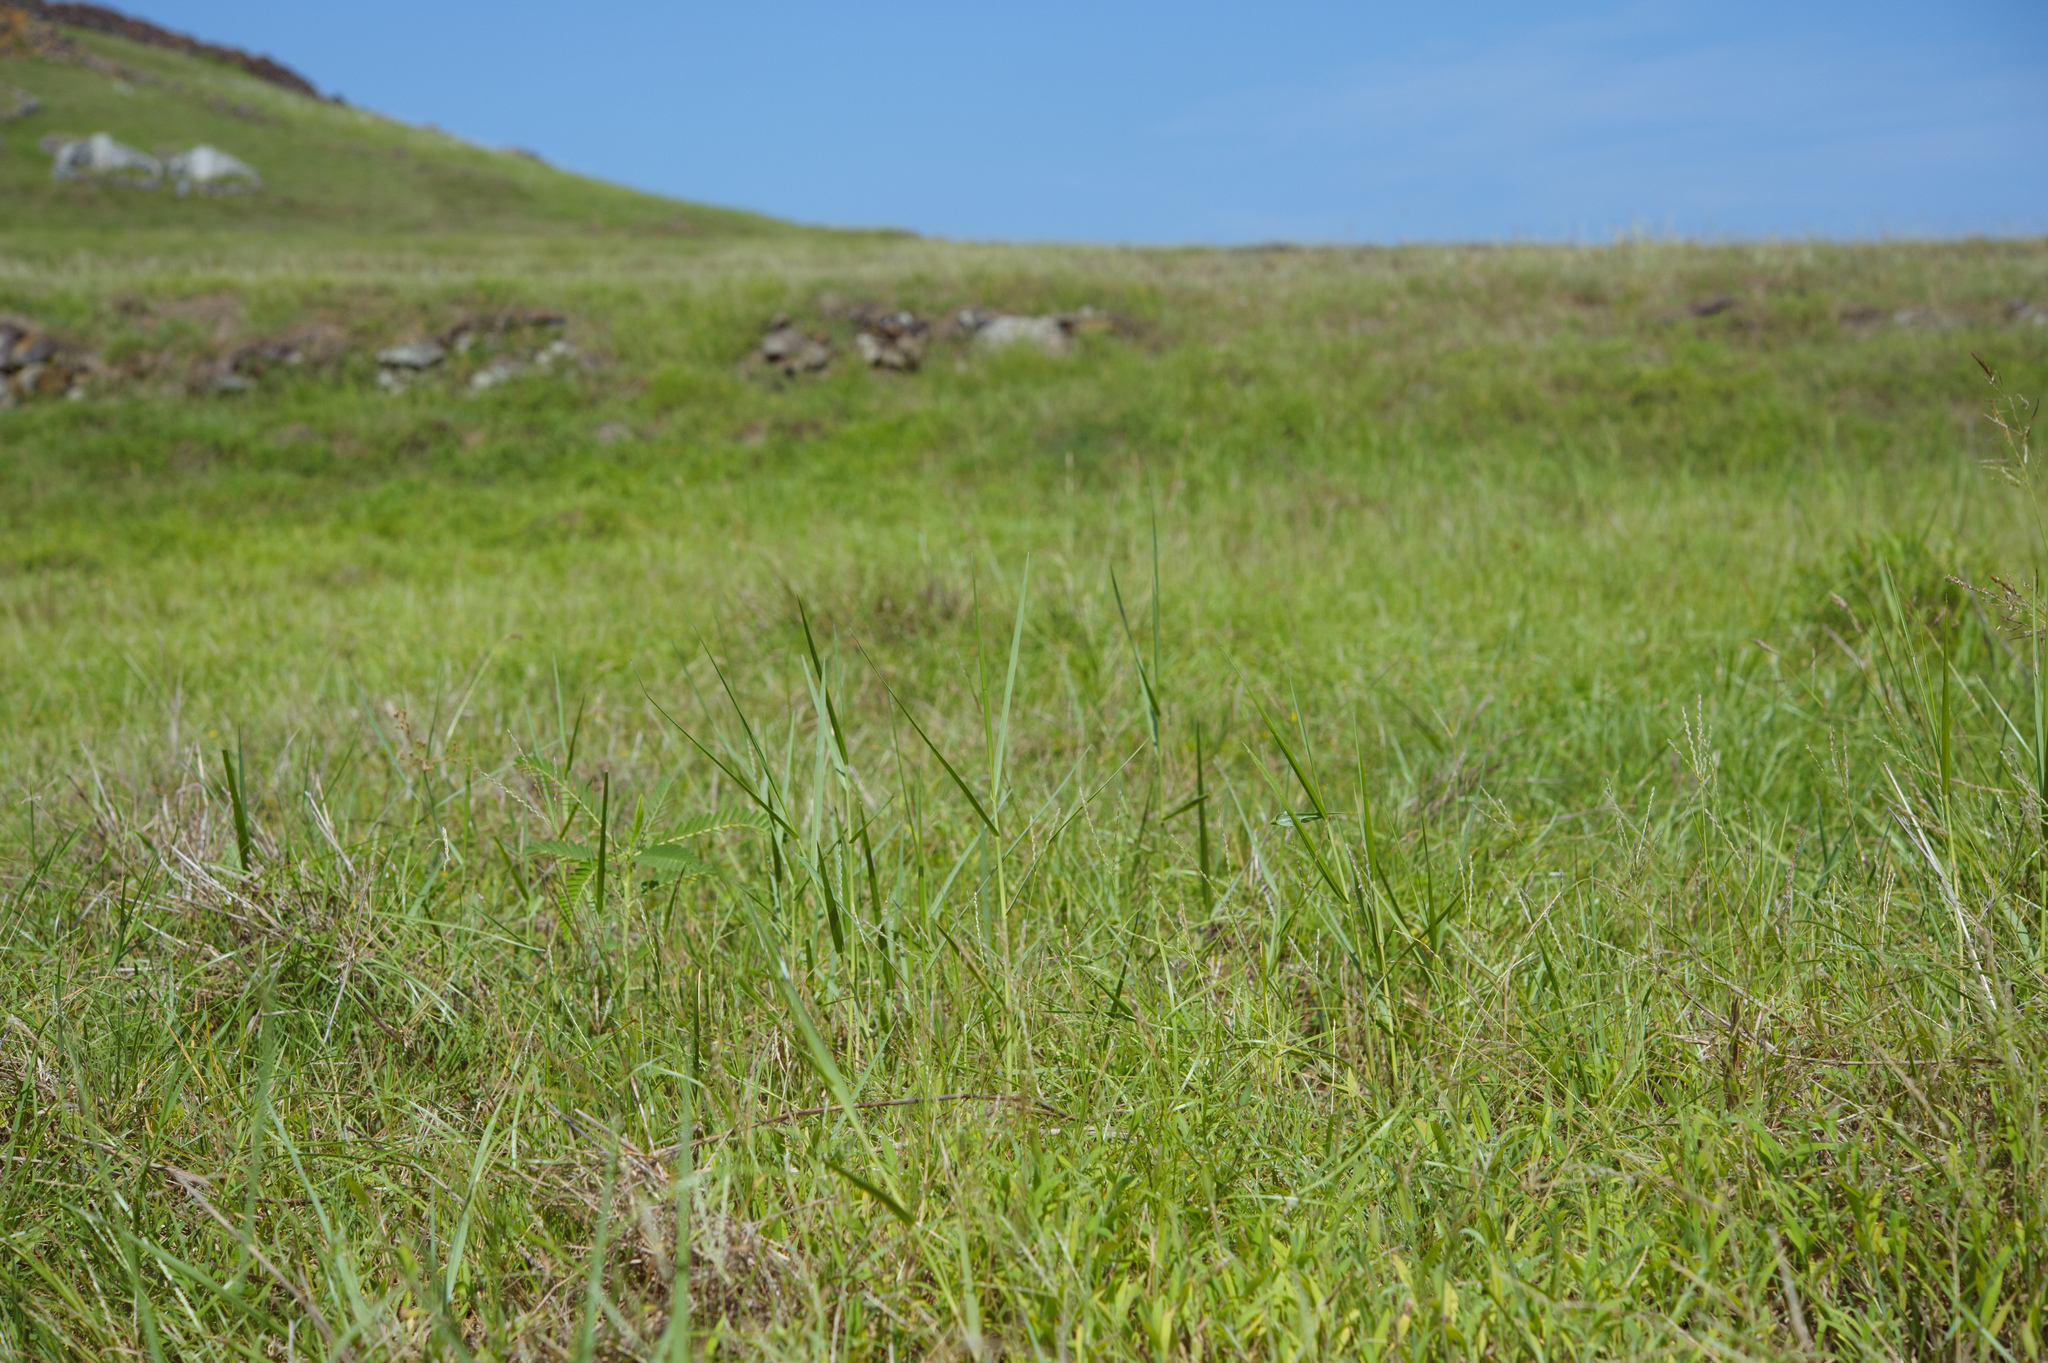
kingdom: Plantae
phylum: Tracheophyta
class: Liliopsida
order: Poales
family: Poaceae
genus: Panicum
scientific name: Panicum repens
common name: Torpedo grass
